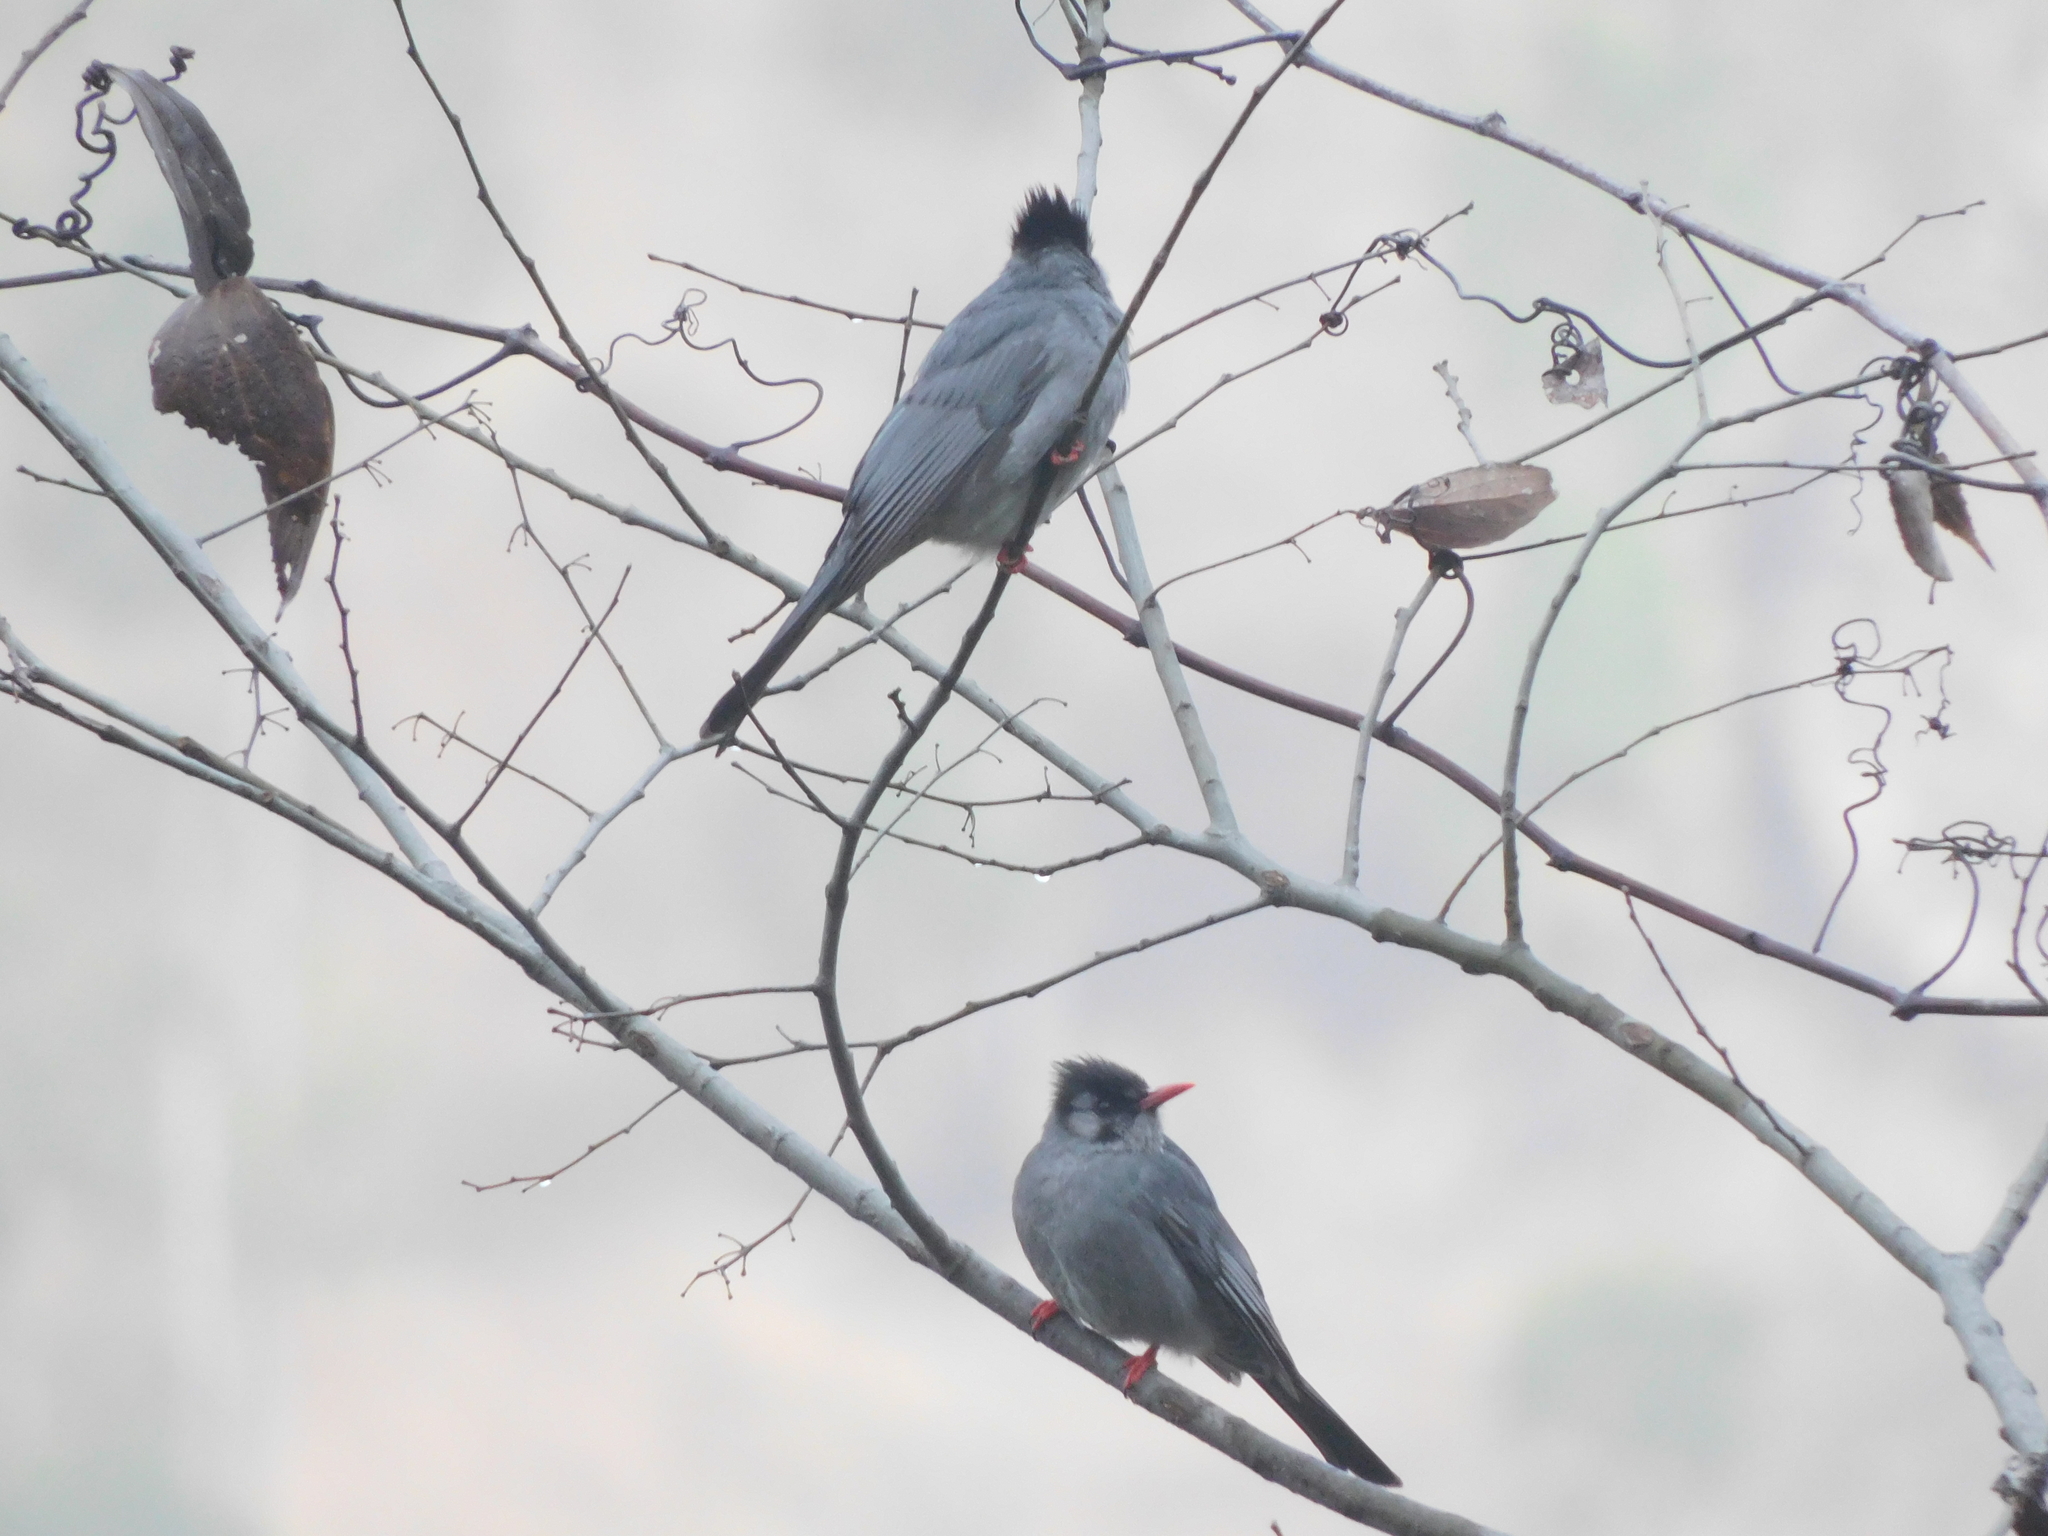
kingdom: Animalia
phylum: Chordata
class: Aves
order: Passeriformes
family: Pycnonotidae
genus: Hypsipetes
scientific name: Hypsipetes leucocephalus
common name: Black bulbul
